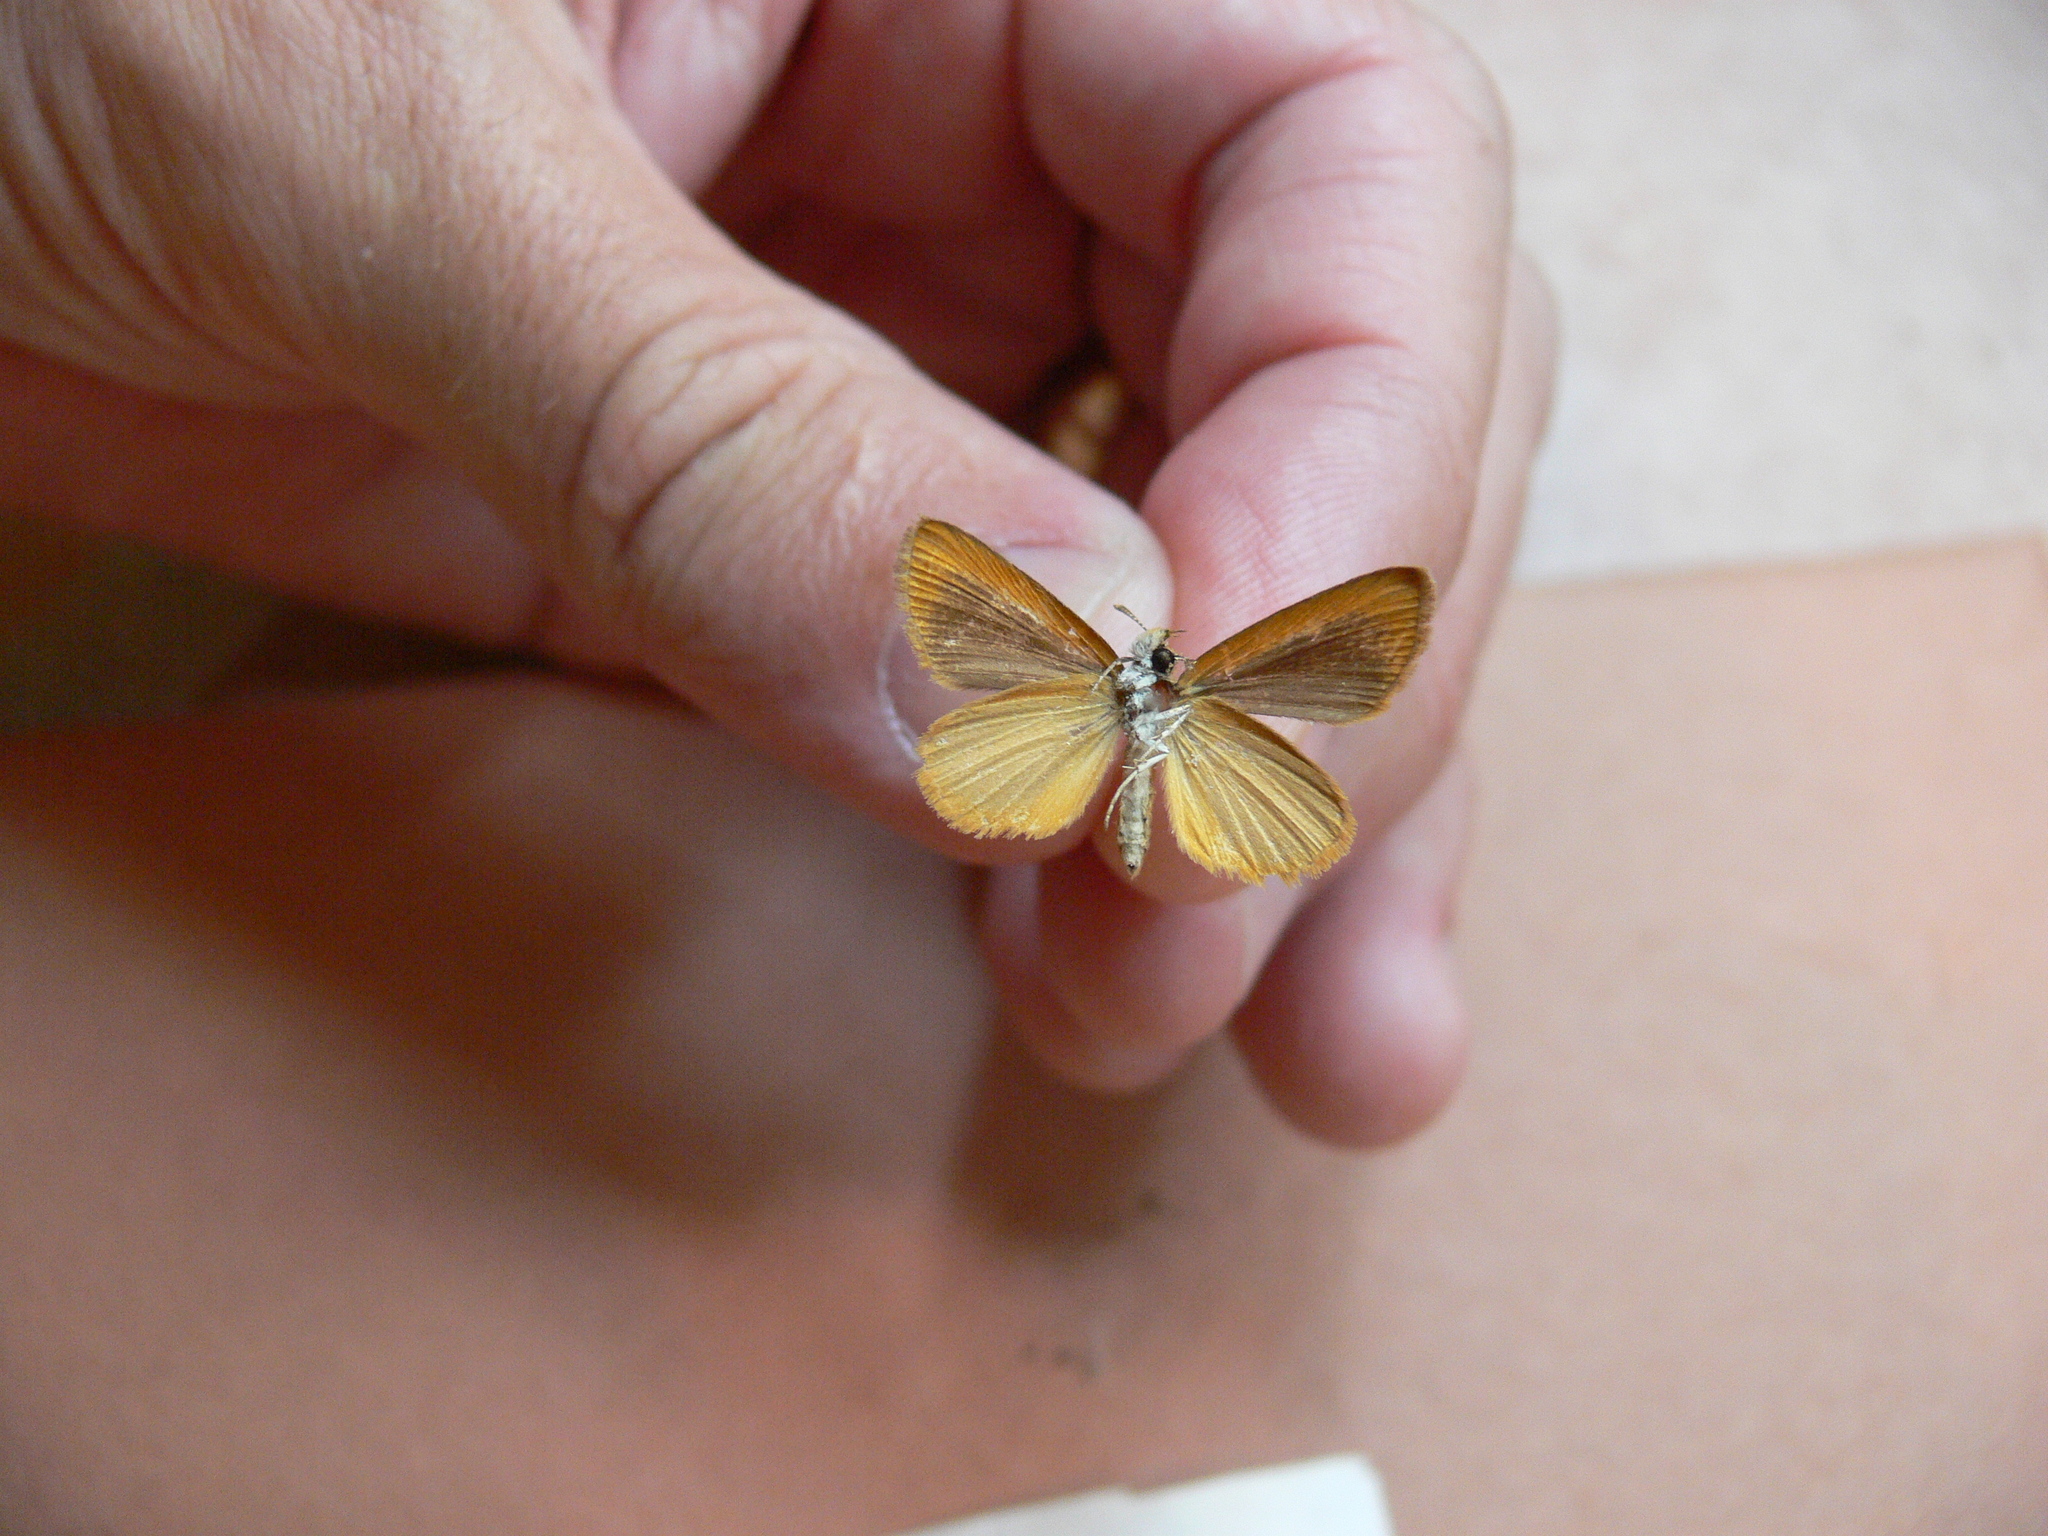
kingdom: Animalia
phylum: Arthropoda
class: Insecta
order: Lepidoptera
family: Hesperiidae
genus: Ancyloxypha
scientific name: Ancyloxypha numitor
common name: Least skipper
